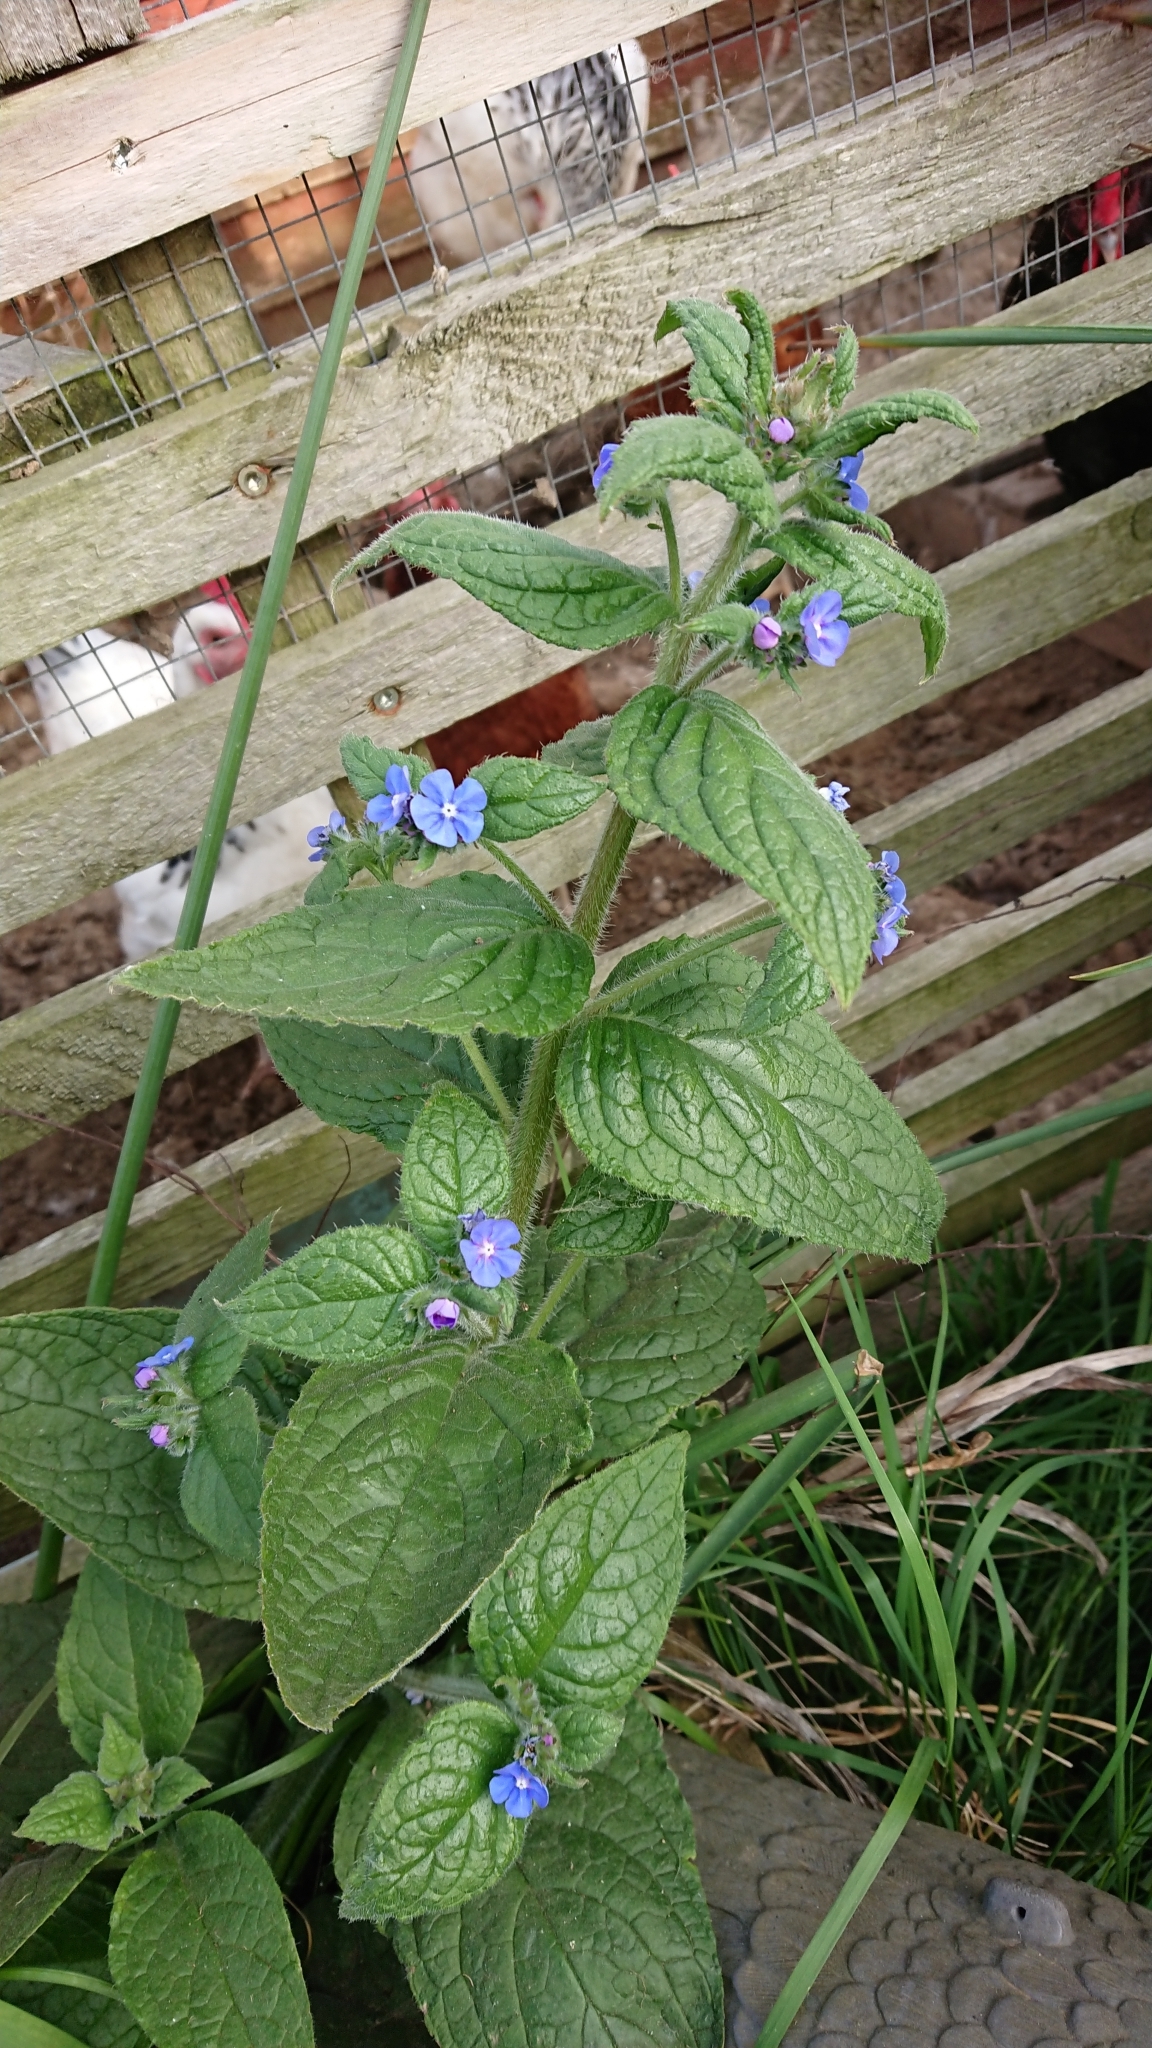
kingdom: Plantae
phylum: Tracheophyta
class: Magnoliopsida
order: Boraginales
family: Boraginaceae
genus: Pentaglottis
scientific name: Pentaglottis sempervirens
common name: Green alkanet
